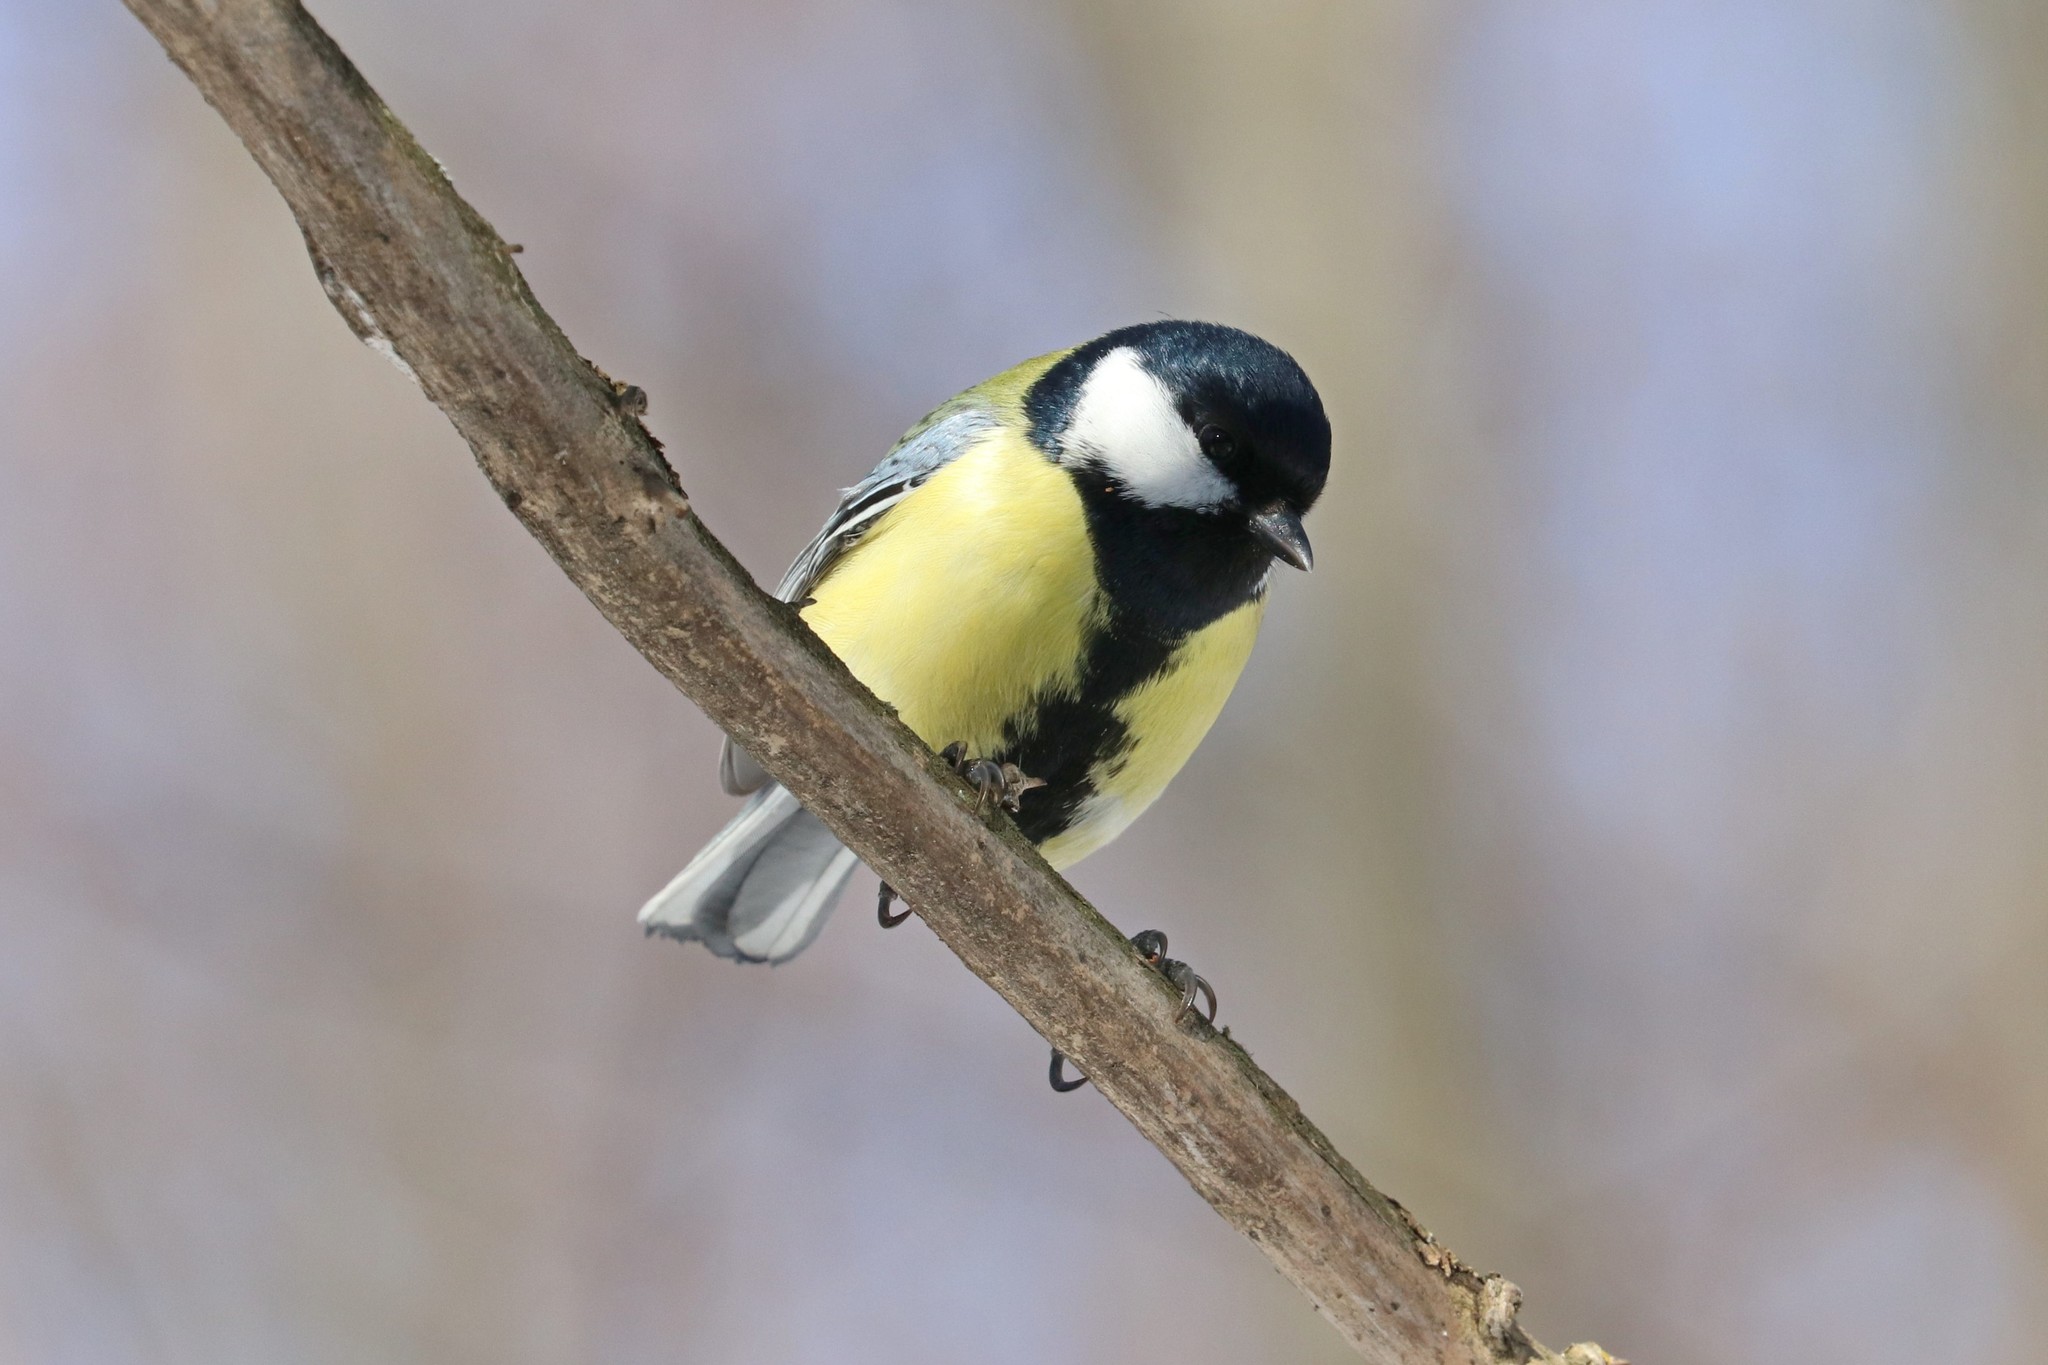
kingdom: Animalia
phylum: Chordata
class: Aves
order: Passeriformes
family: Paridae
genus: Parus
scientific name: Parus major
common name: Great tit
